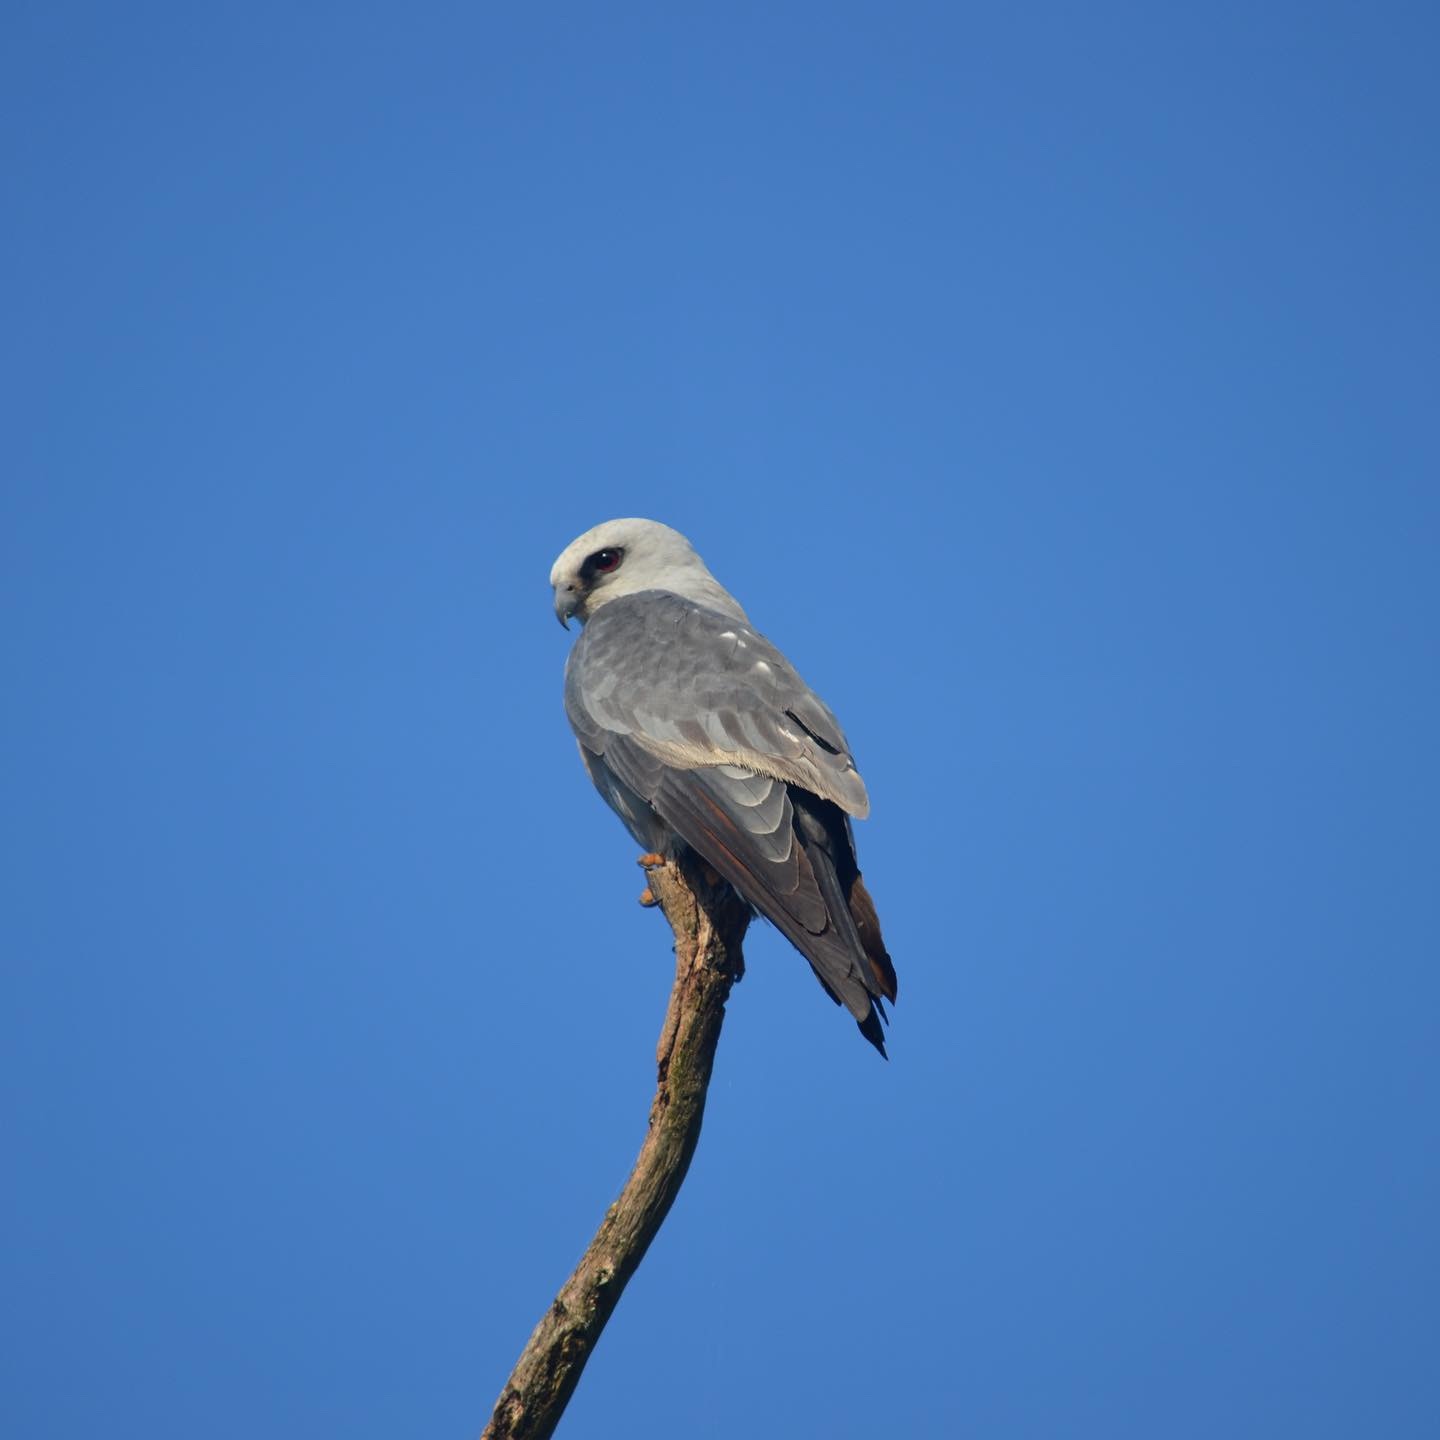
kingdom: Animalia
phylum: Chordata
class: Aves
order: Accipitriformes
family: Accipitridae
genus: Ictinia
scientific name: Ictinia mississippiensis
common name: Mississippi kite
